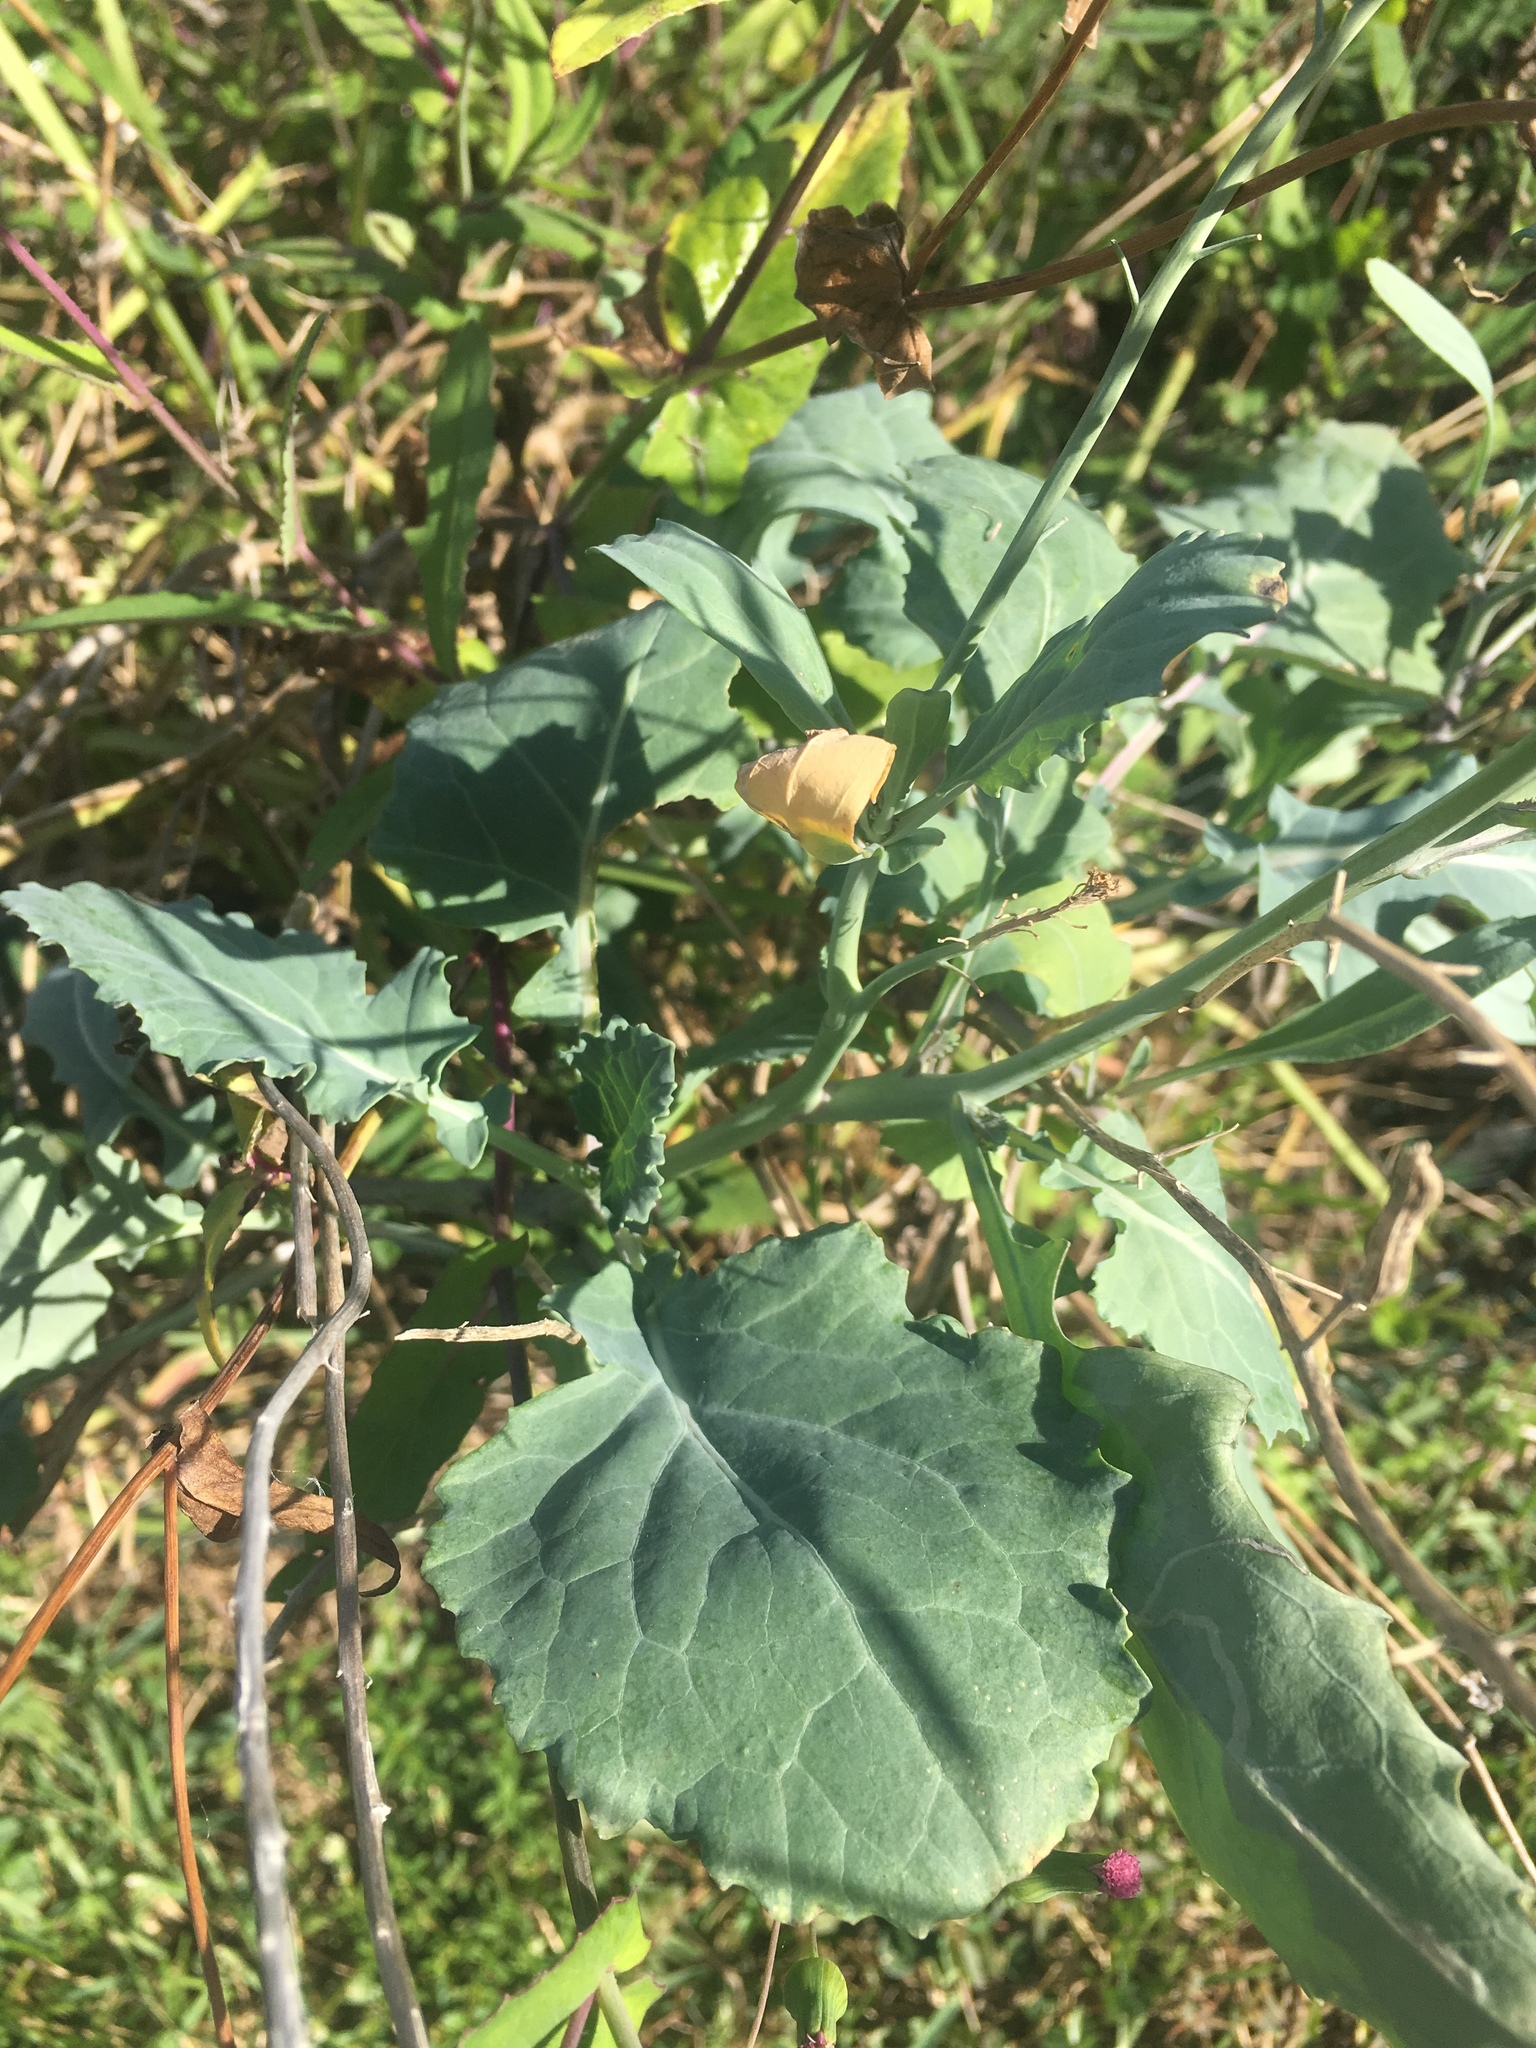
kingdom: Plantae
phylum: Tracheophyta
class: Magnoliopsida
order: Brassicales
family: Brassicaceae
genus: Brassica
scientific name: Brassica napus
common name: Rape
